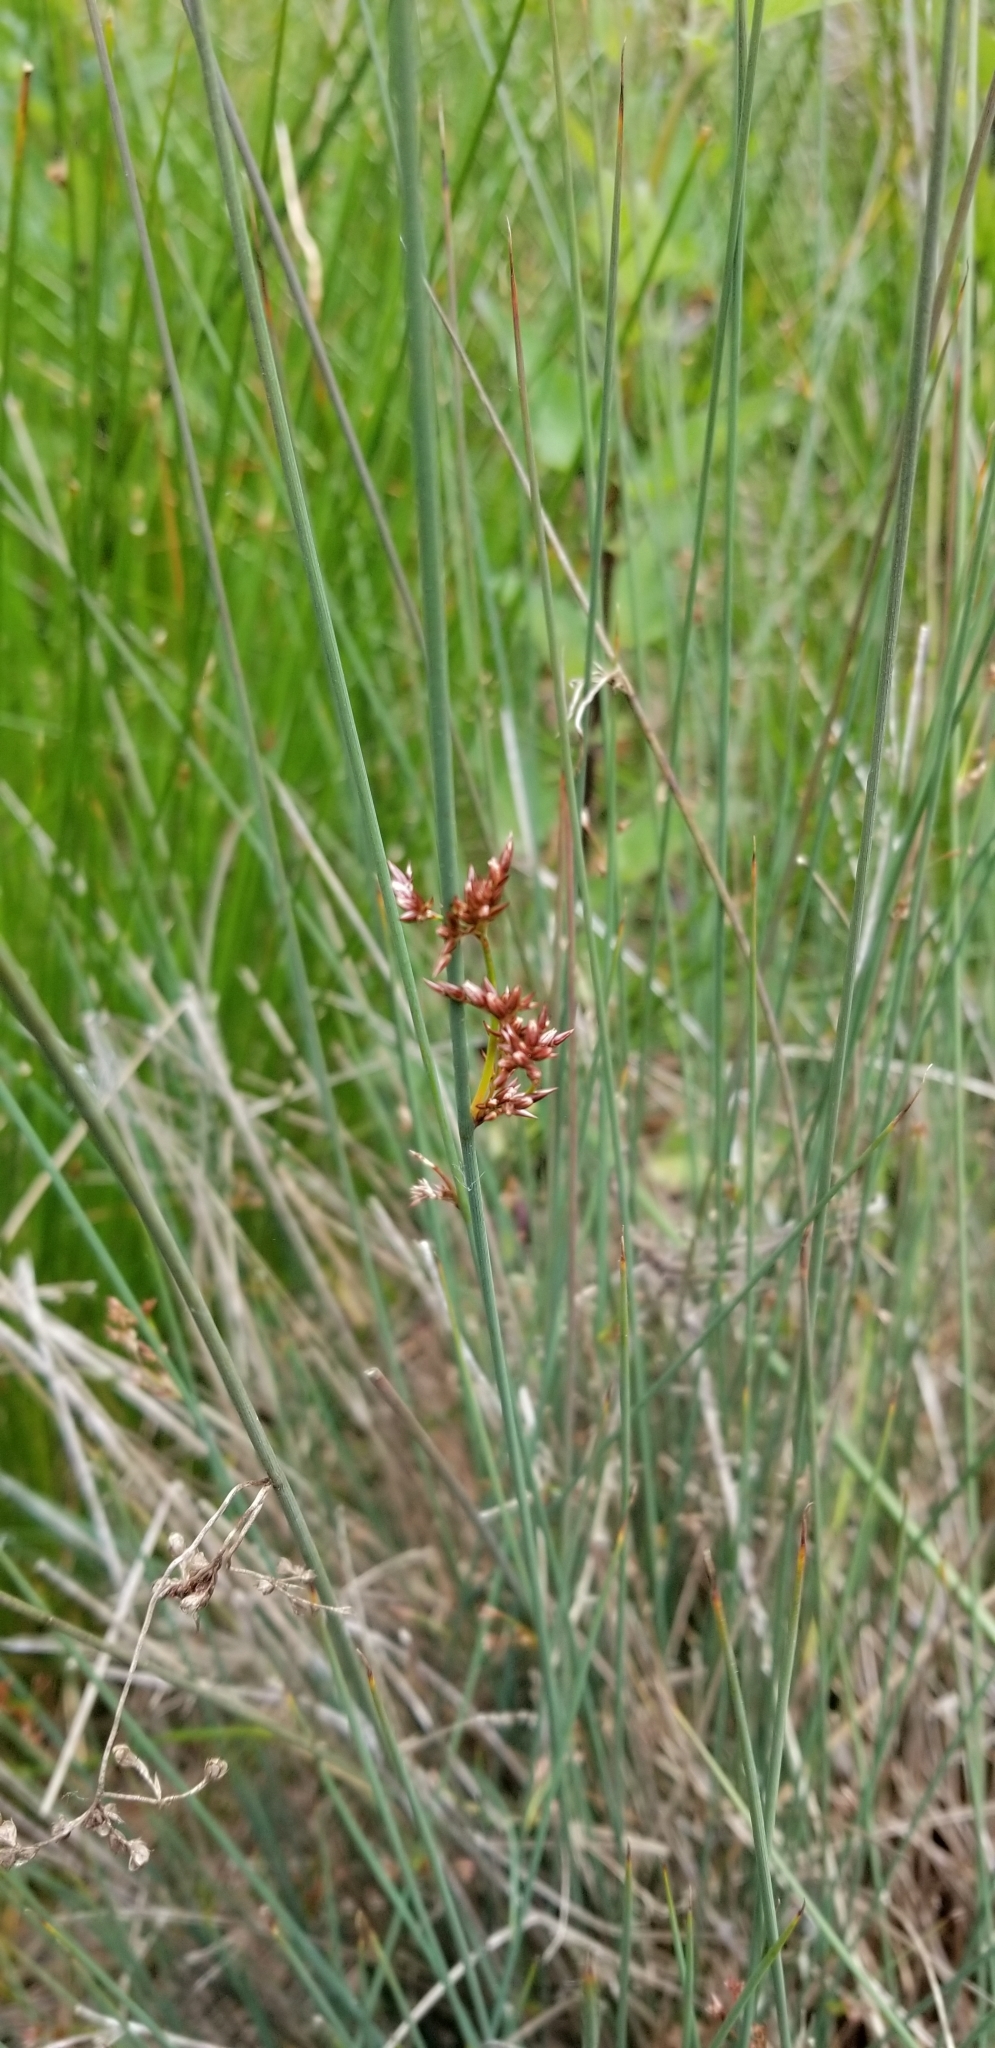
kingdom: Plantae
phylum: Tracheophyta
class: Liliopsida
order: Poales
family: Juncaceae
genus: Juncus
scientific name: Juncus patens
